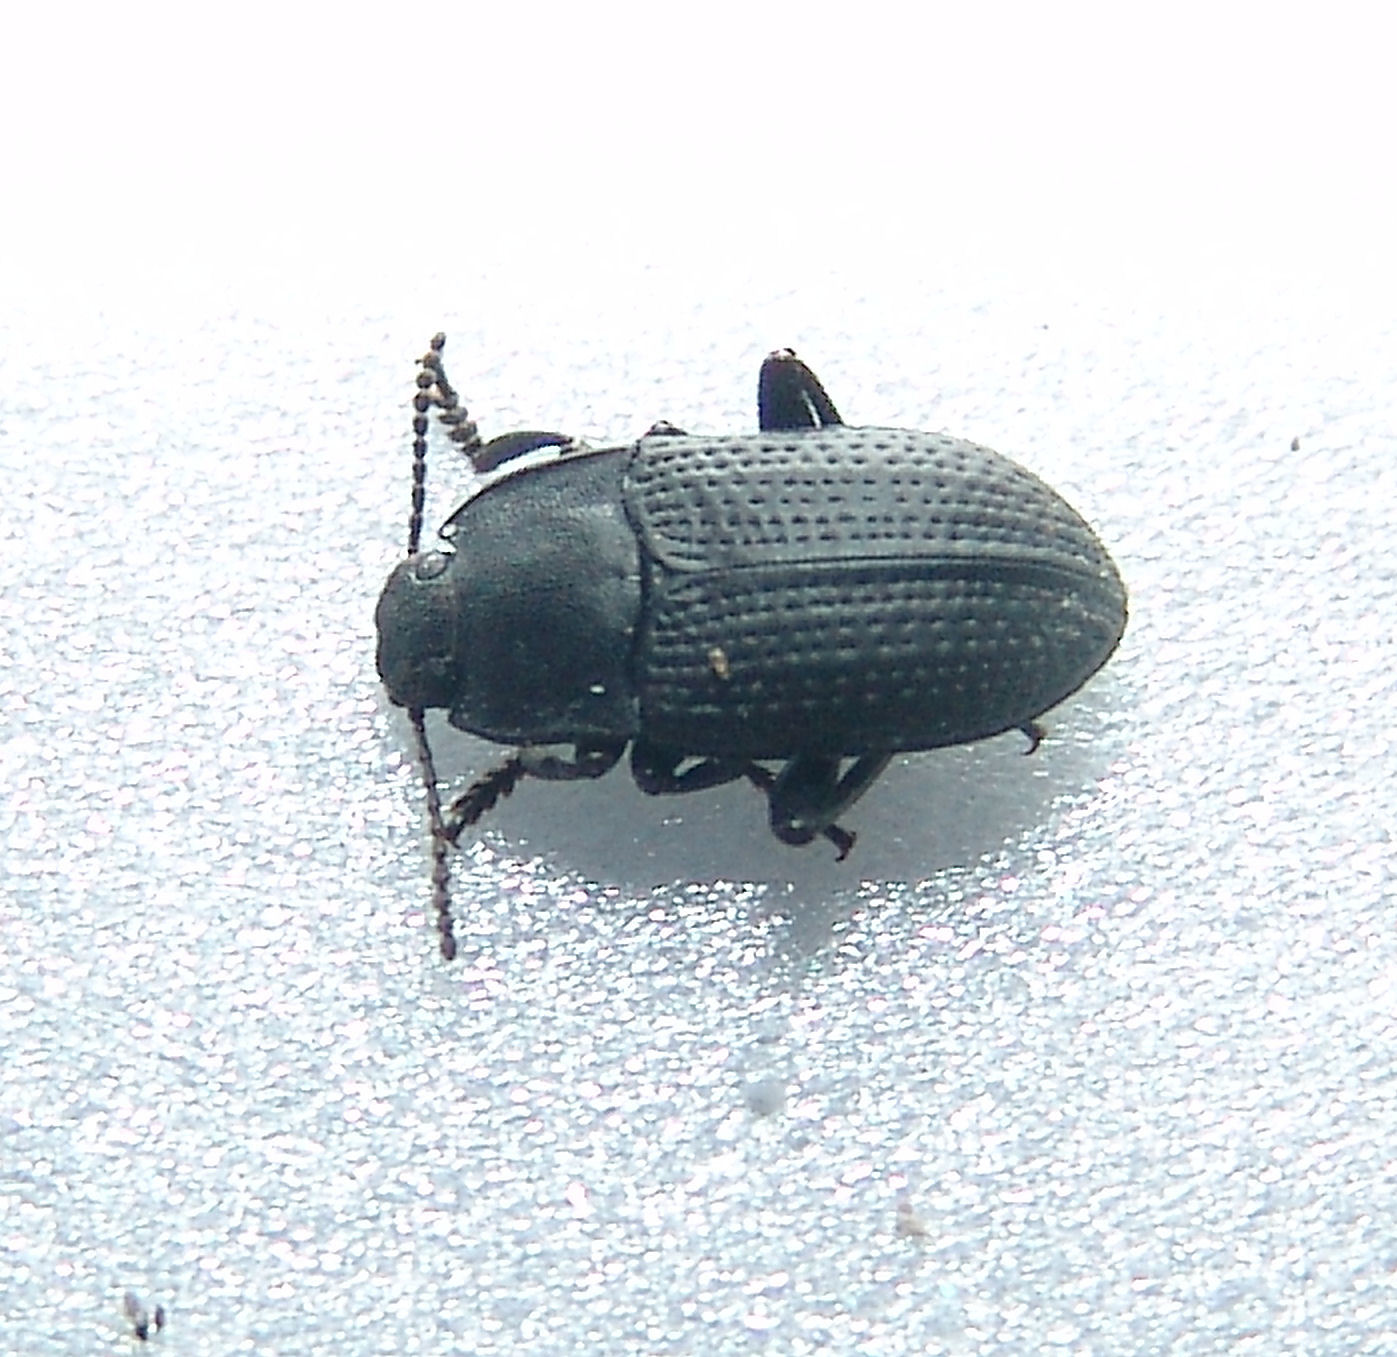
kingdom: Animalia
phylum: Arthropoda
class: Insecta
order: Coleoptera
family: Tenebrionidae
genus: Asiopus
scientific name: Asiopus
